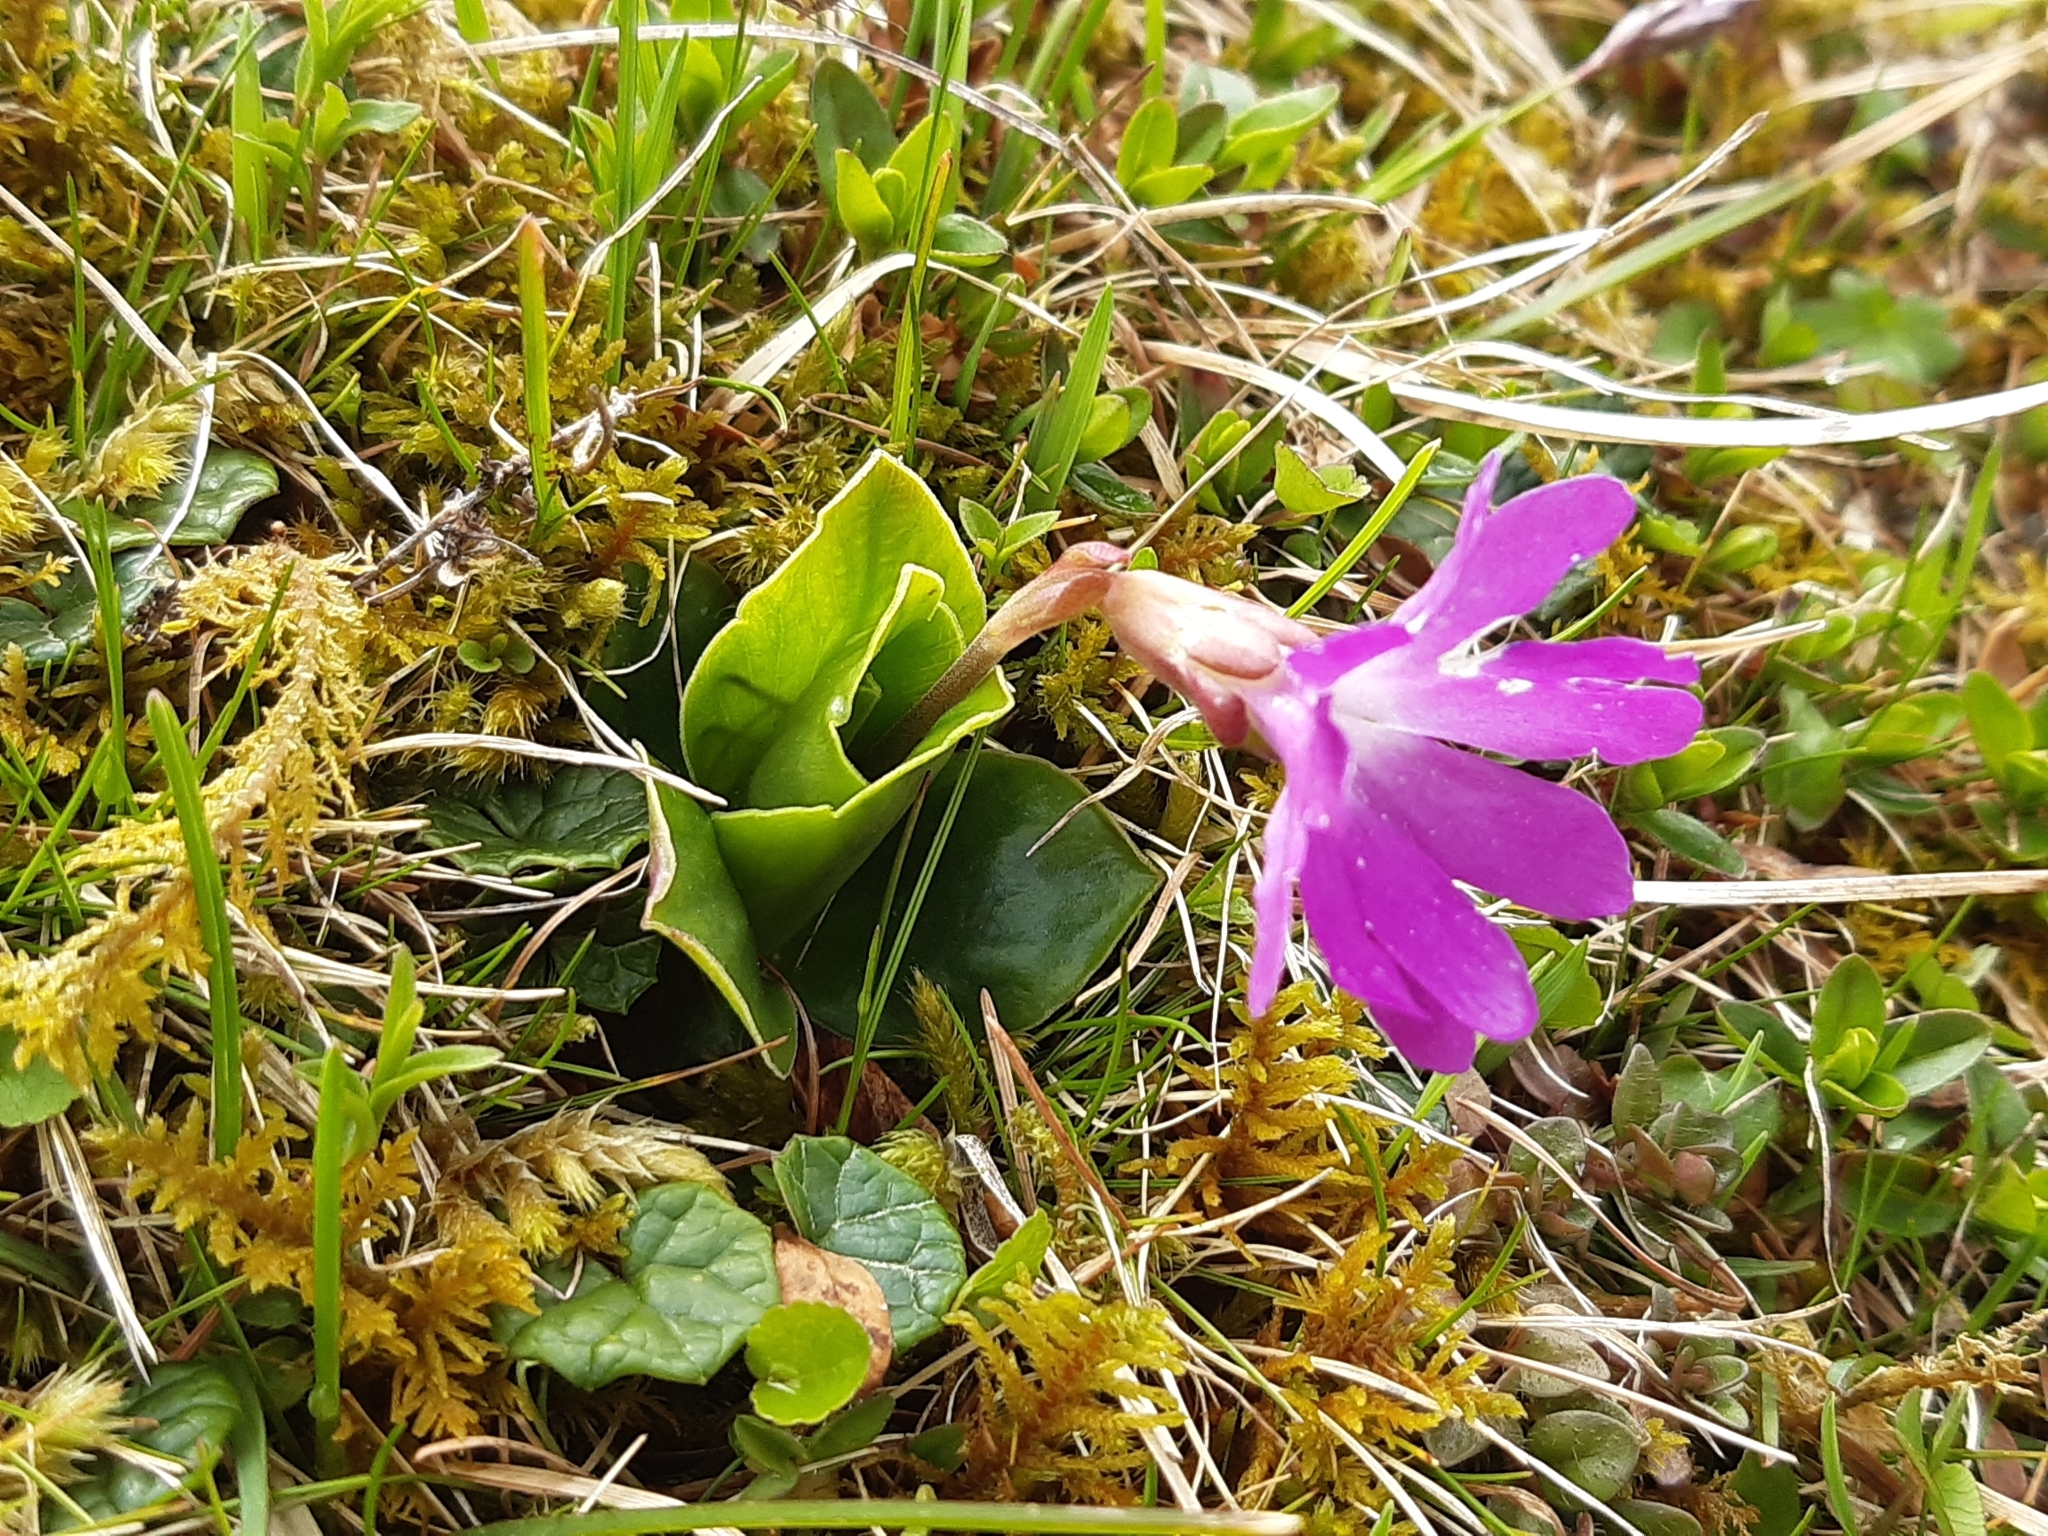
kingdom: Plantae
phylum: Tracheophyta
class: Magnoliopsida
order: Ericales
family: Primulaceae
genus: Primula
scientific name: Primula clusiana
